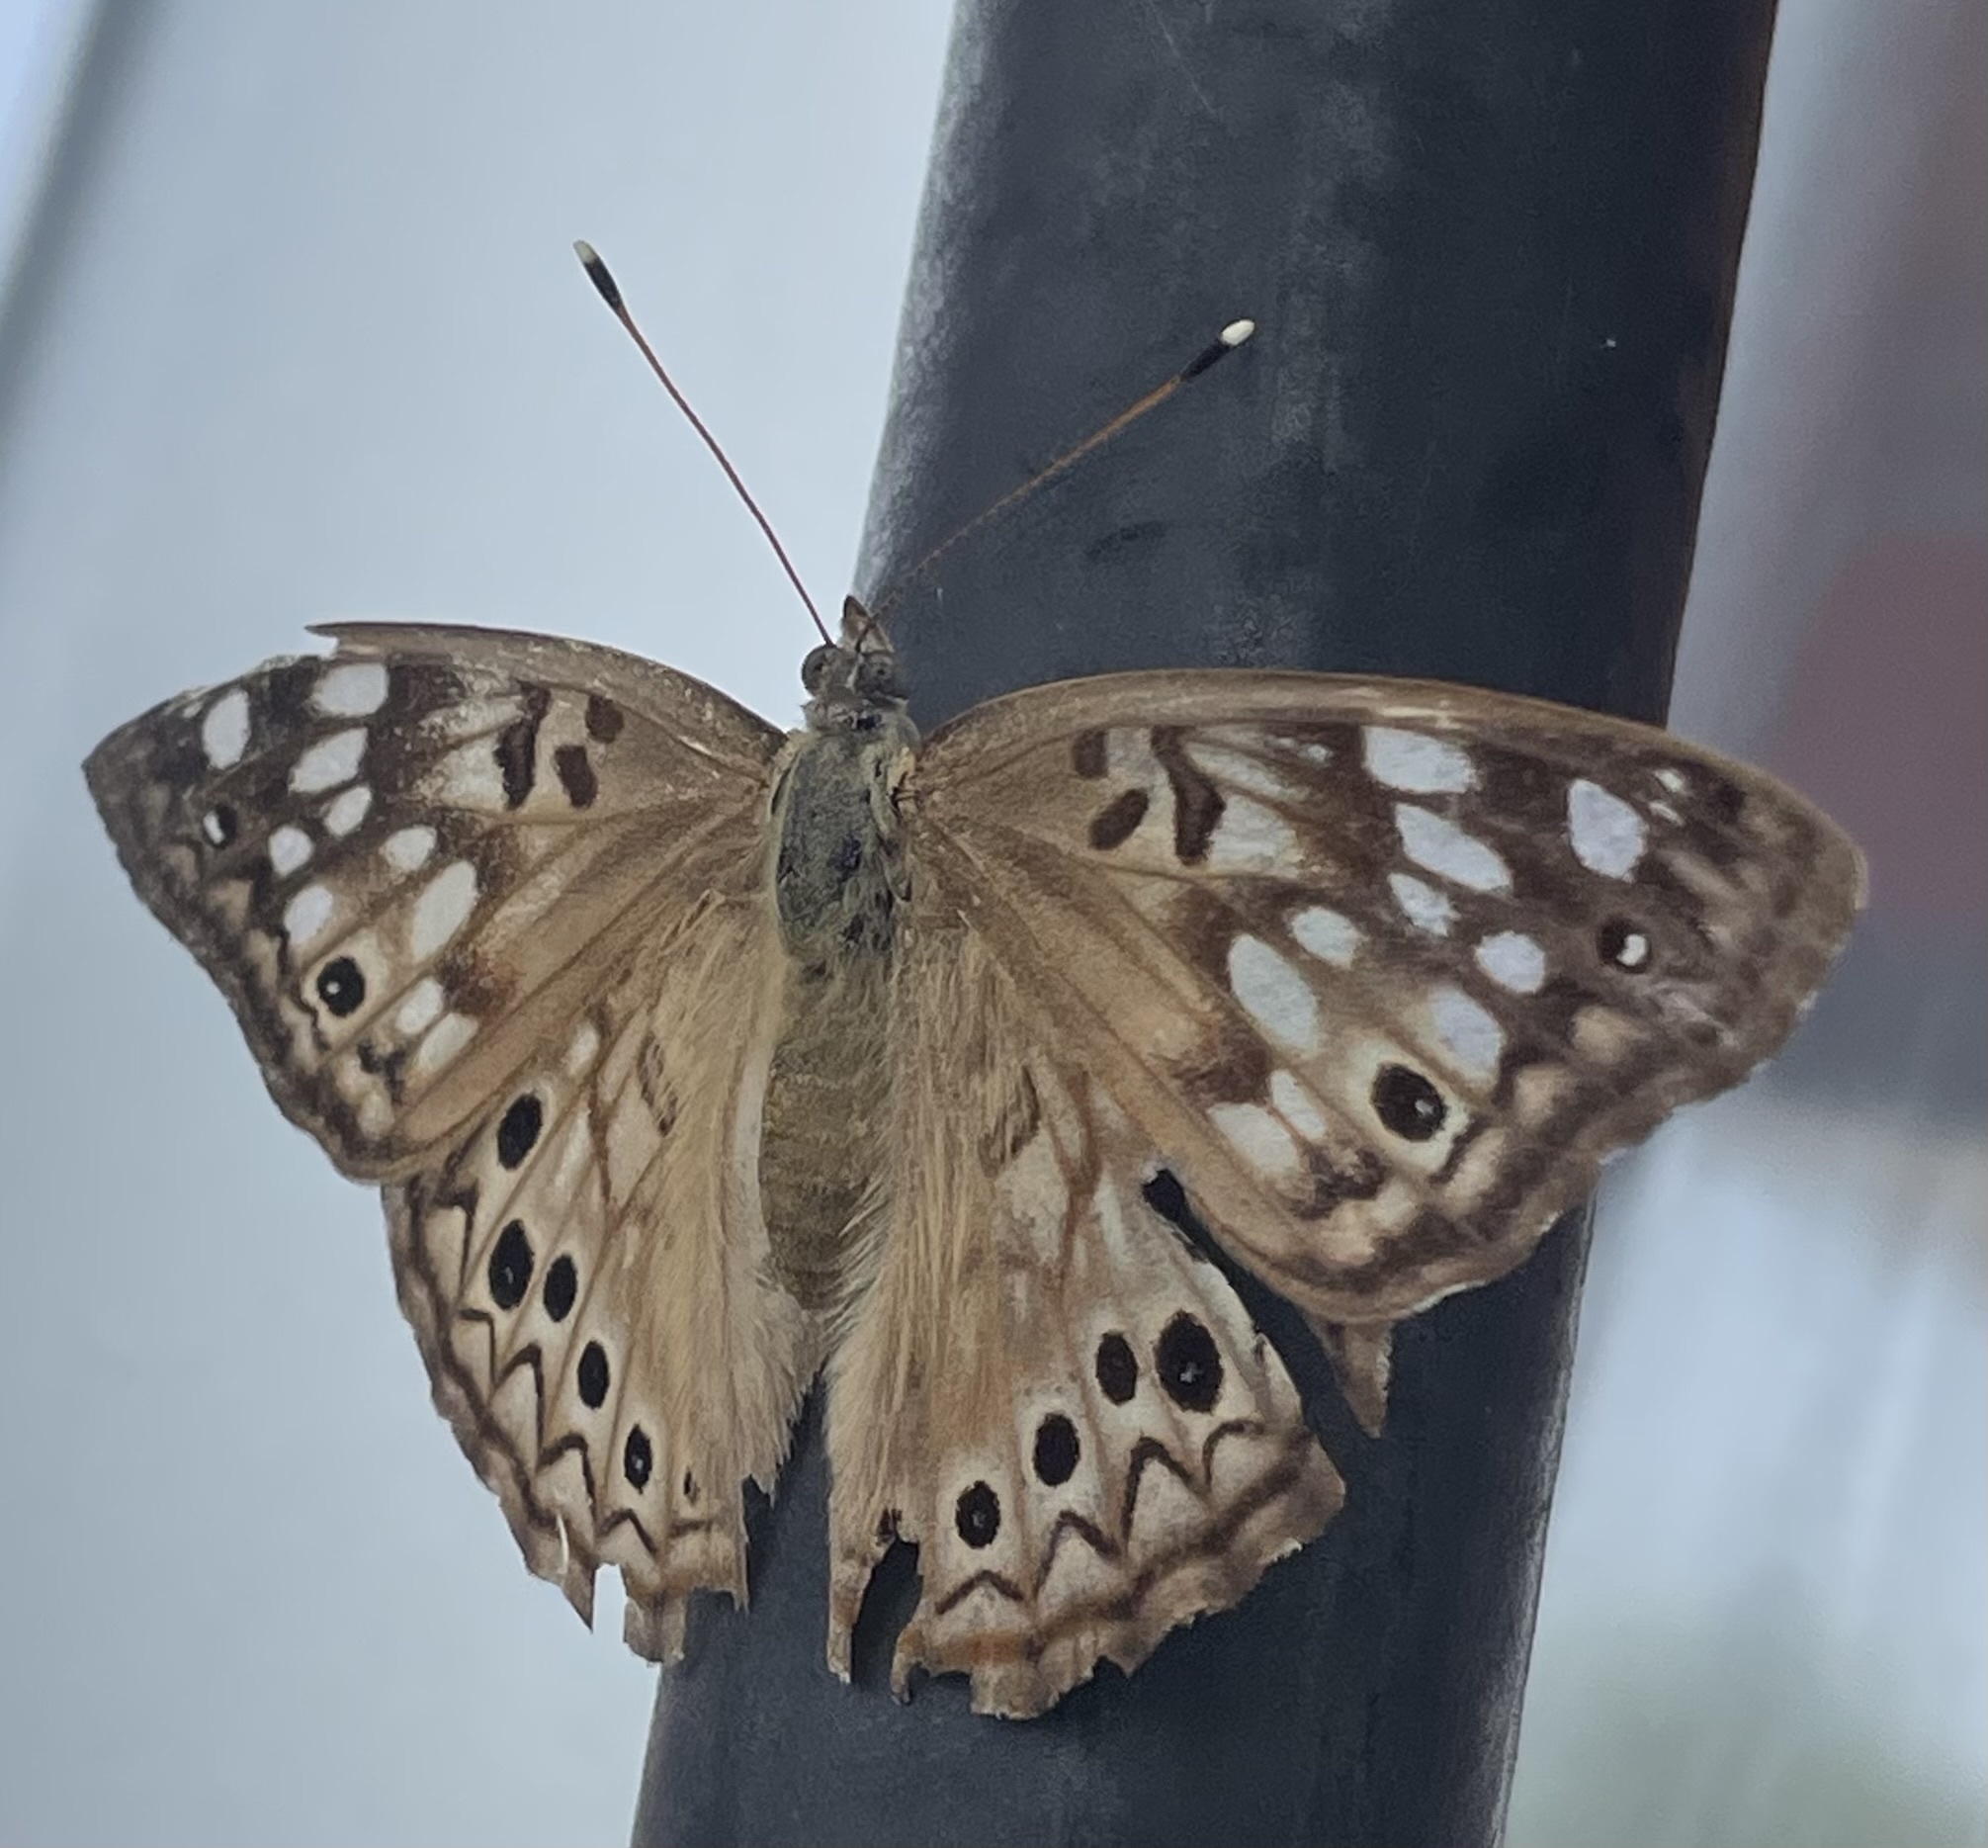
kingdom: Animalia
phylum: Arthropoda
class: Insecta
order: Lepidoptera
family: Nymphalidae
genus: Asterocampa
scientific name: Asterocampa celtis
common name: Hackberry emperor
